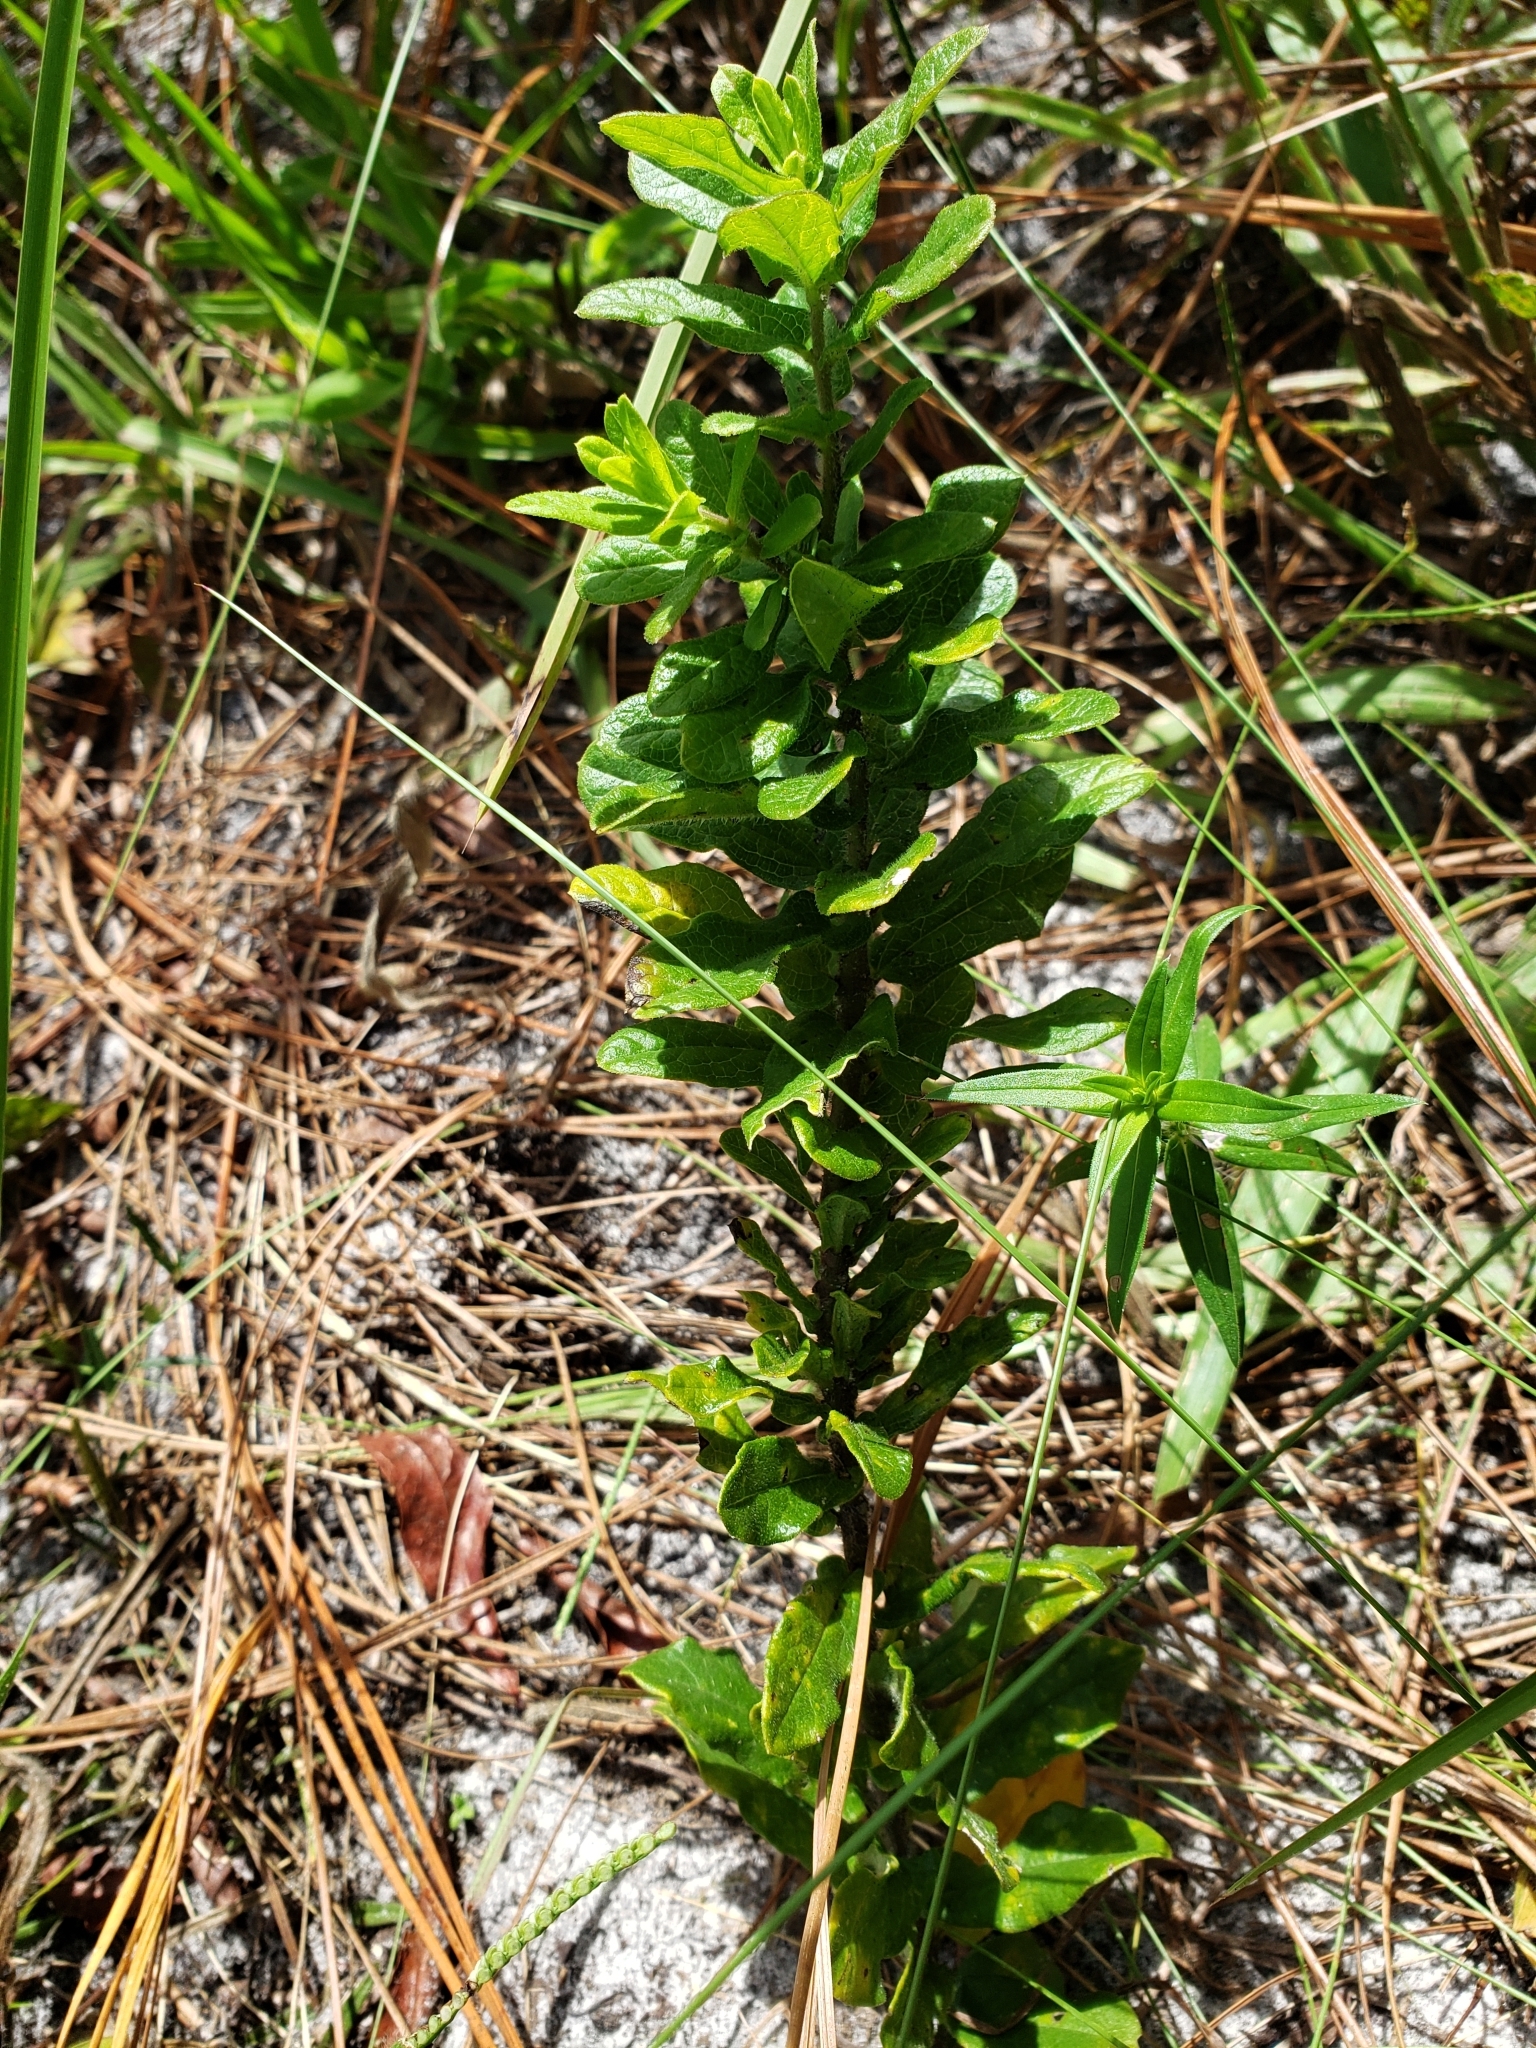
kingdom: Plantae
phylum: Tracheophyta
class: Magnoliopsida
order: Gentianales
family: Apocynaceae
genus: Asclepias
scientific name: Asclepias tuberosa
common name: Butterfly milkweed
